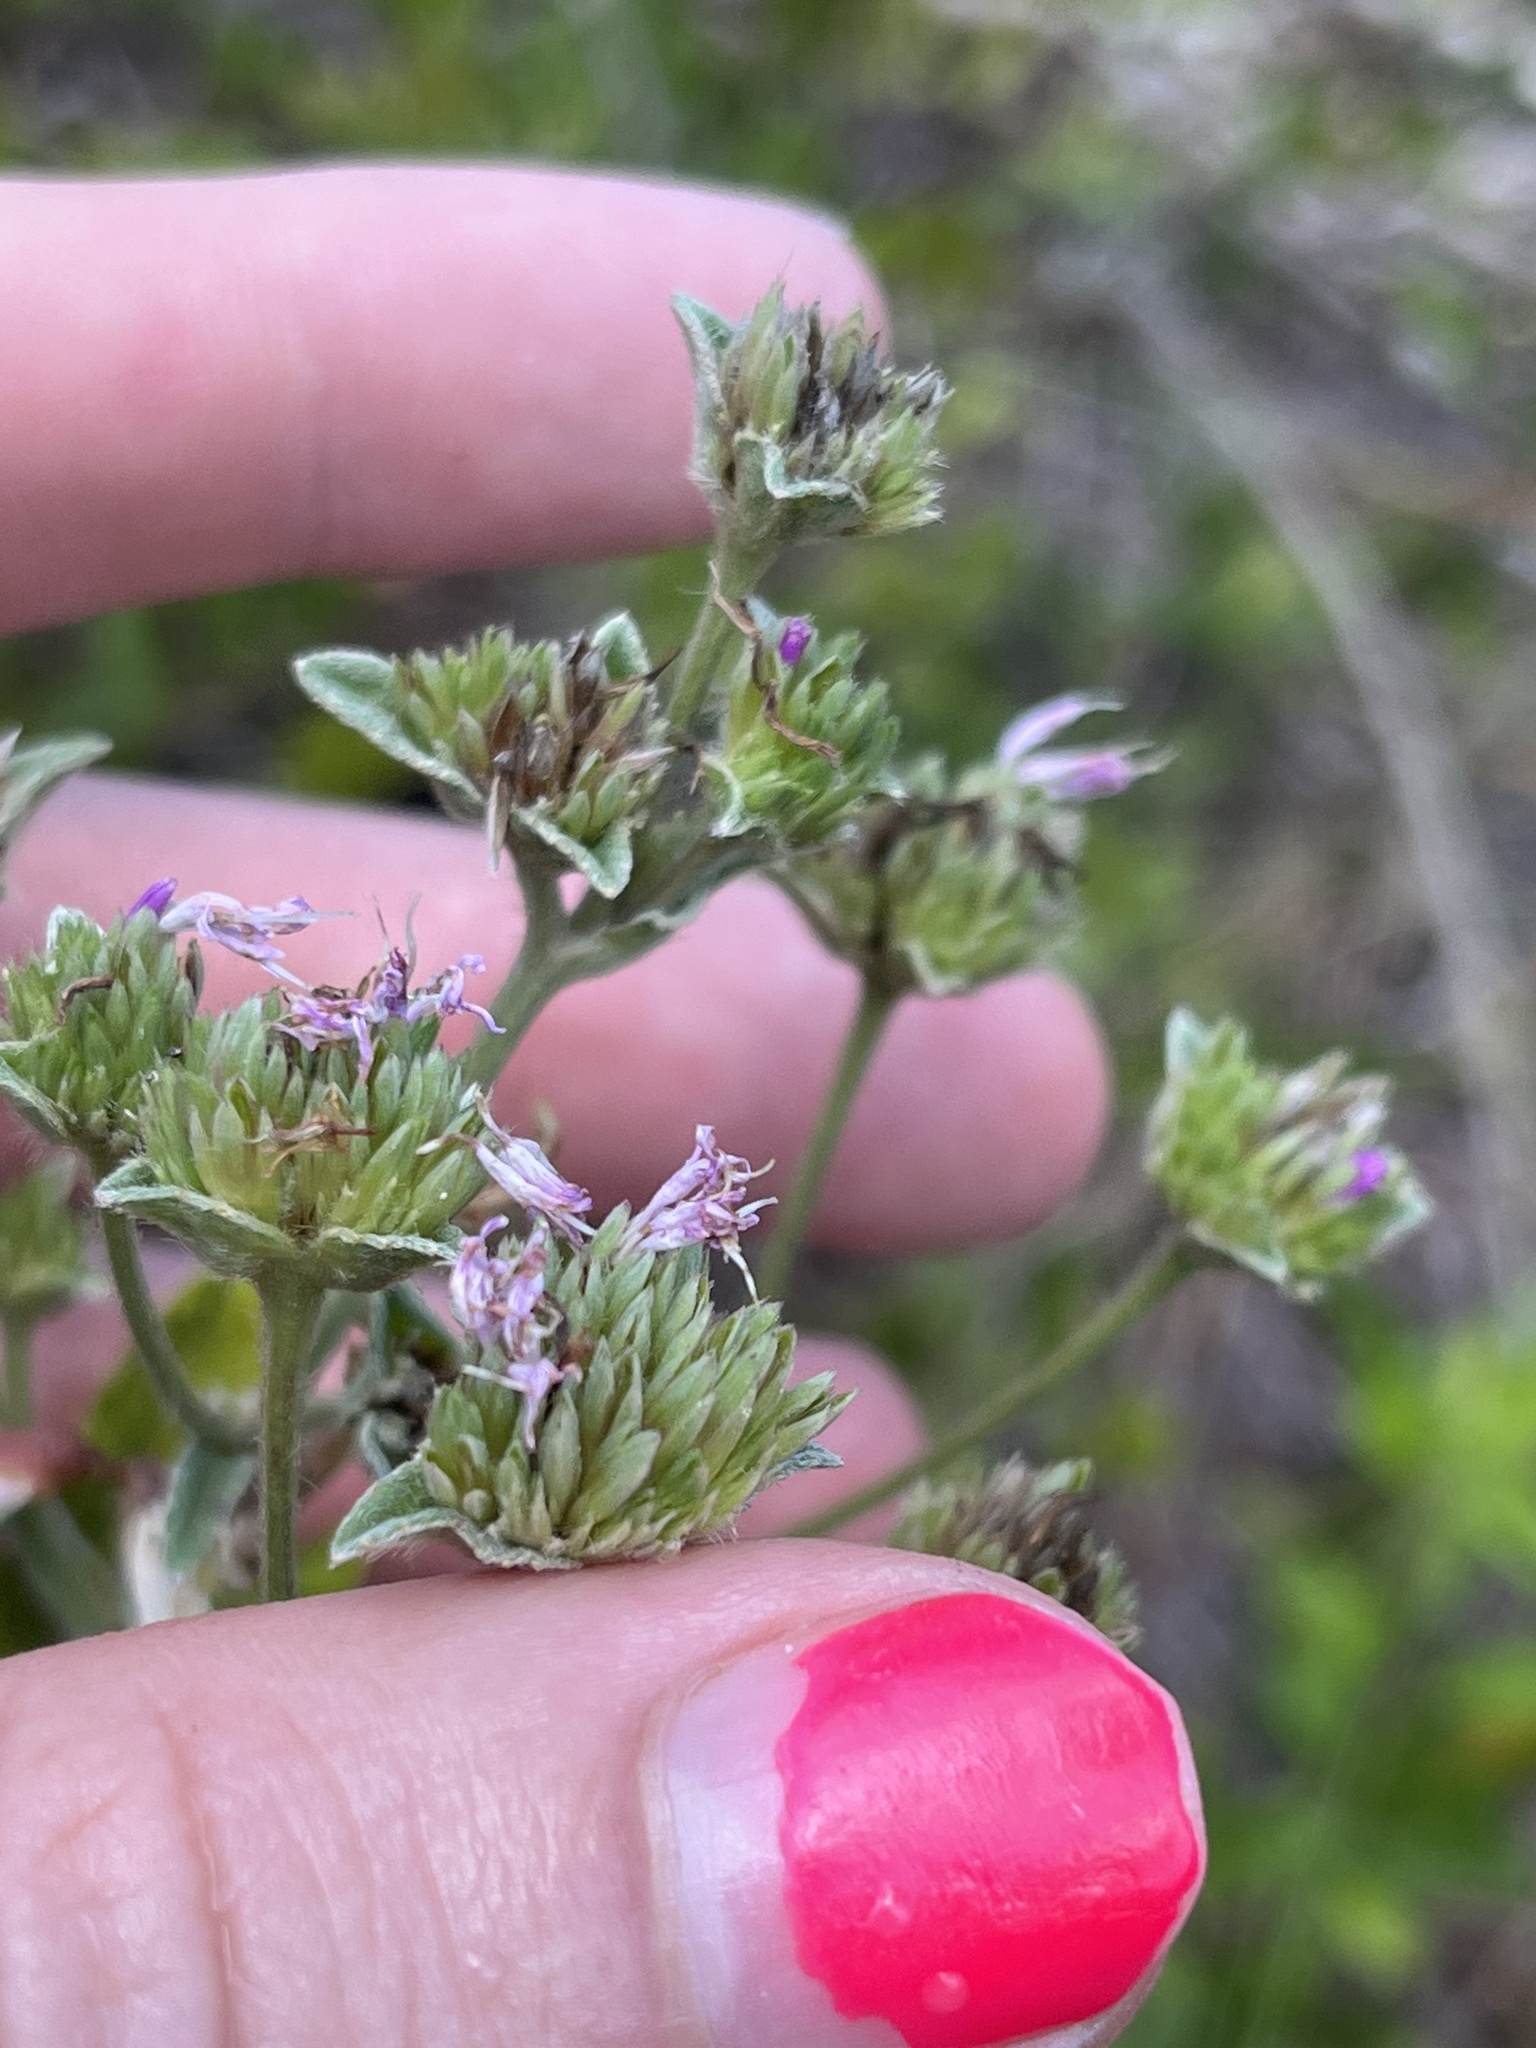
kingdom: Plantae
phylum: Tracheophyta
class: Magnoliopsida
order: Asterales
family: Asteraceae
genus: Elephantopus
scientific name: Elephantopus elatus
